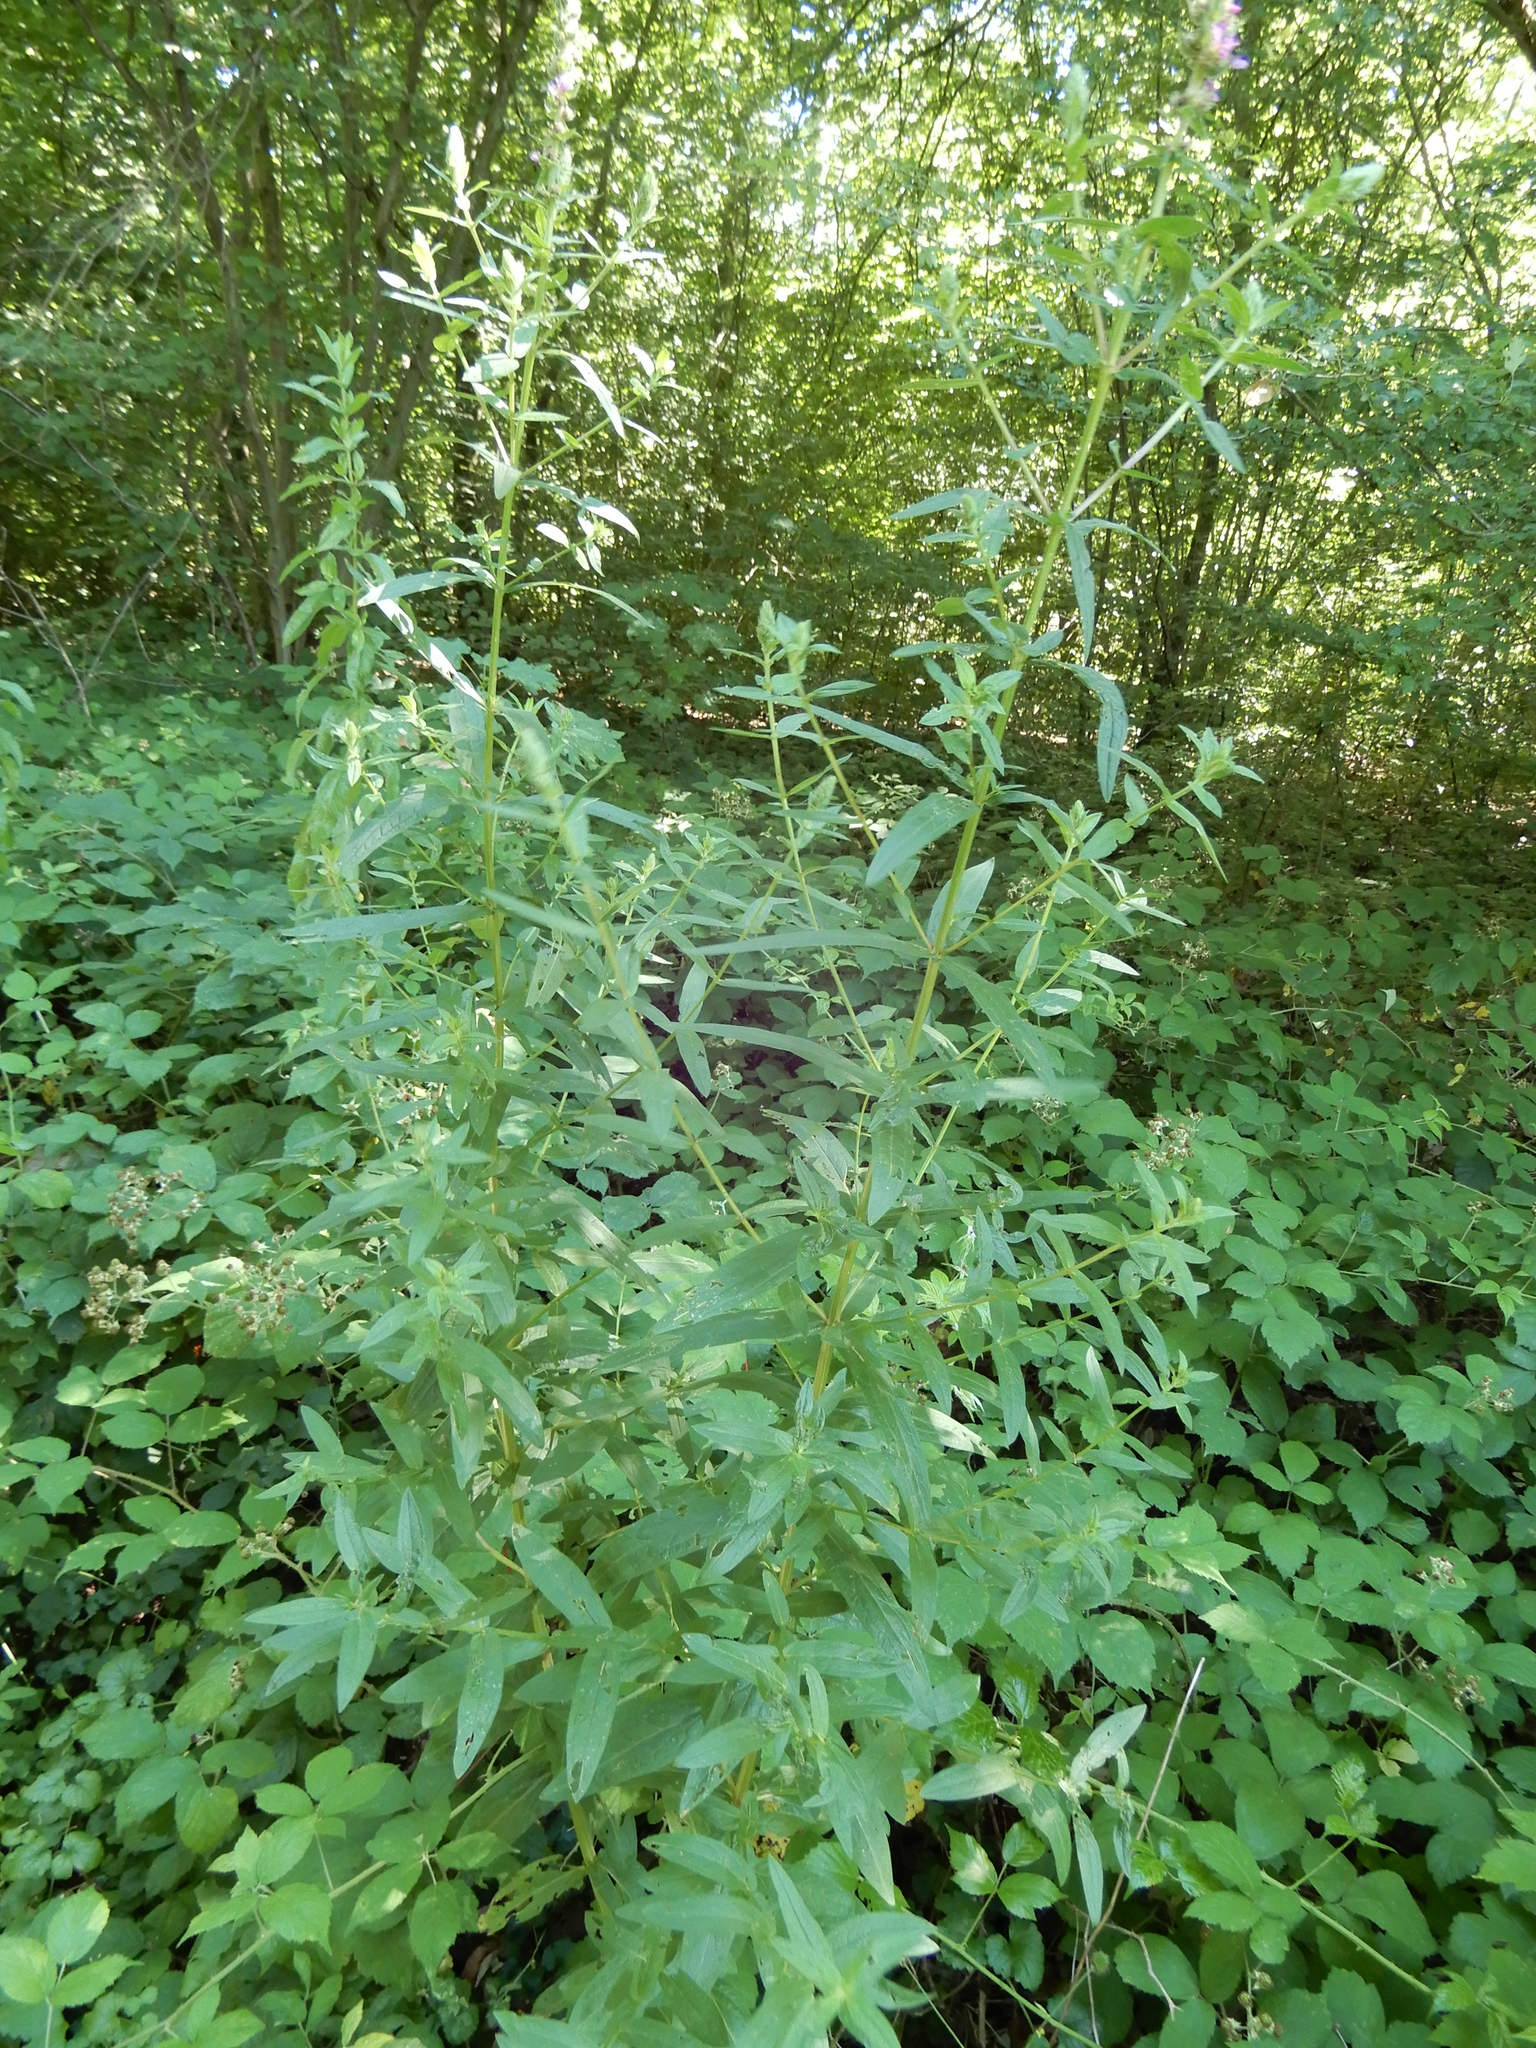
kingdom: Plantae
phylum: Tracheophyta
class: Magnoliopsida
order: Myrtales
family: Lythraceae
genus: Lythrum
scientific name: Lythrum salicaria
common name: Purple loosestrife
